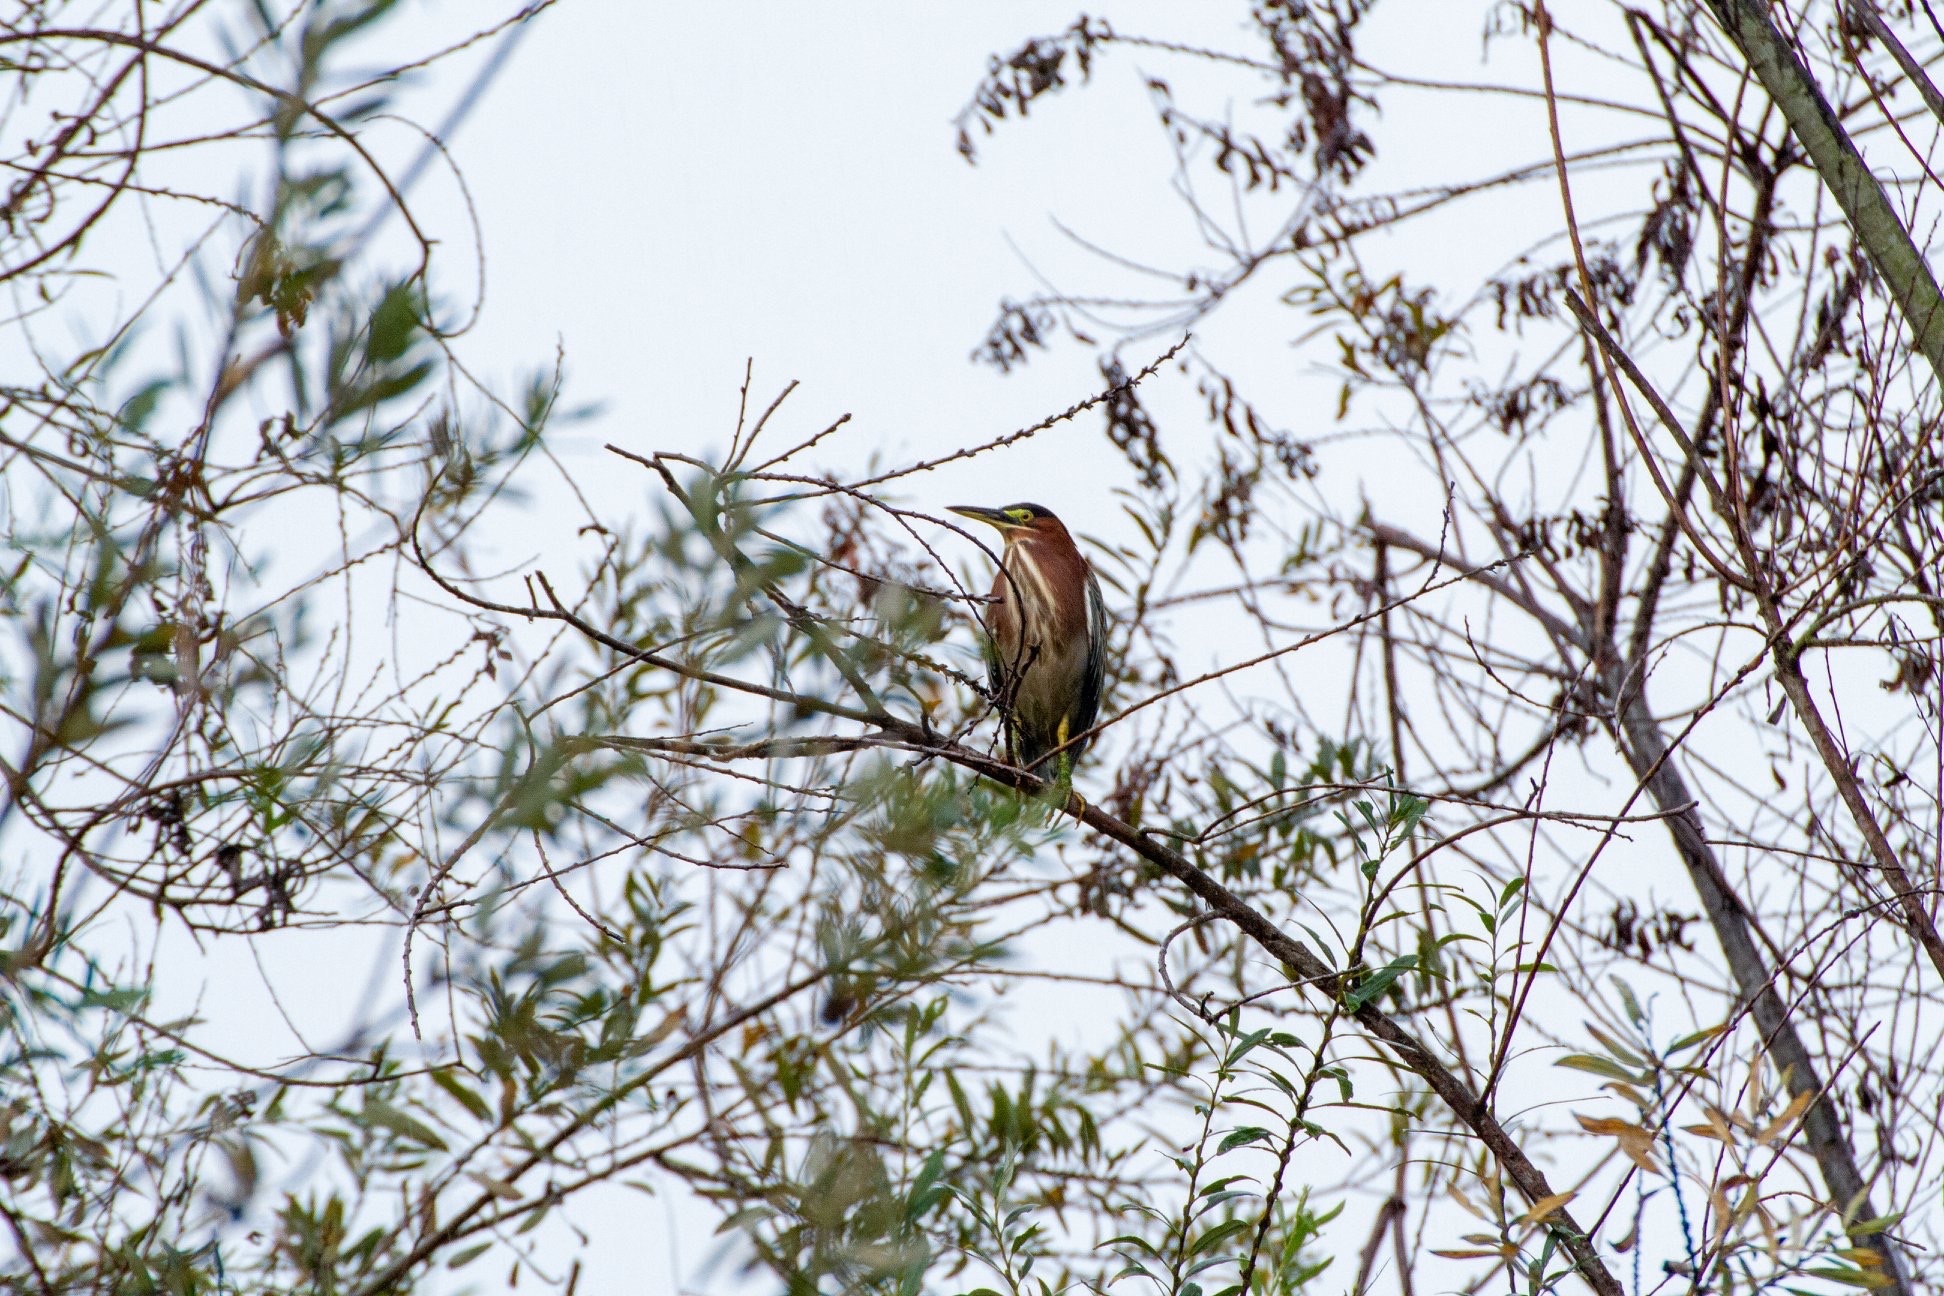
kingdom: Animalia
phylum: Chordata
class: Aves
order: Pelecaniformes
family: Ardeidae
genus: Butorides
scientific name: Butorides virescens
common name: Green heron
